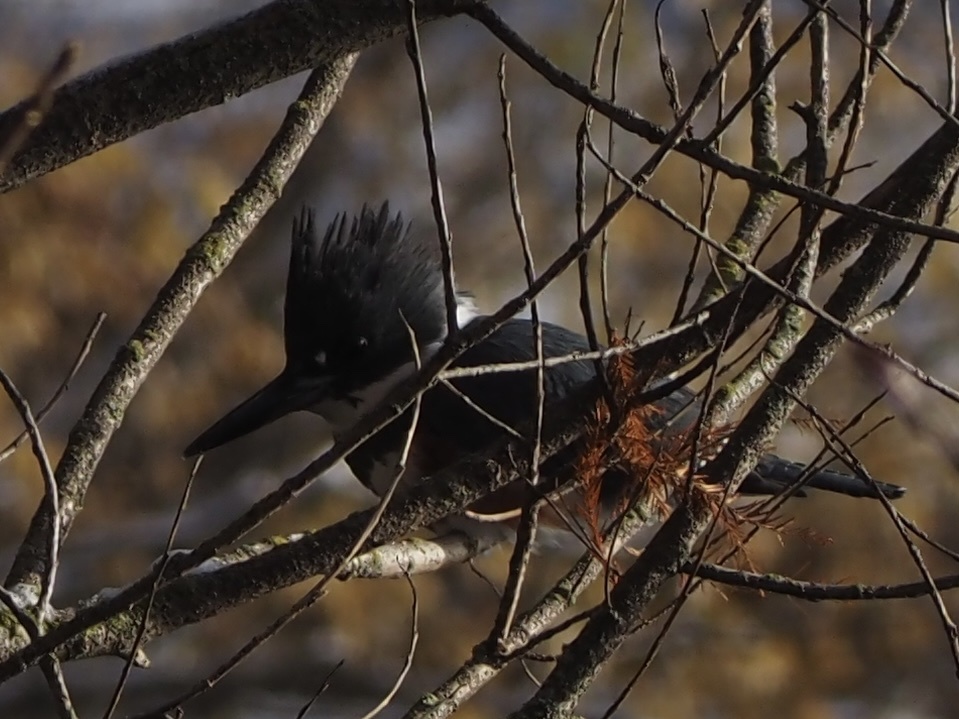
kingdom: Animalia
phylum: Chordata
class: Aves
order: Coraciiformes
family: Alcedinidae
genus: Megaceryle
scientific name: Megaceryle alcyon
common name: Belted kingfisher
